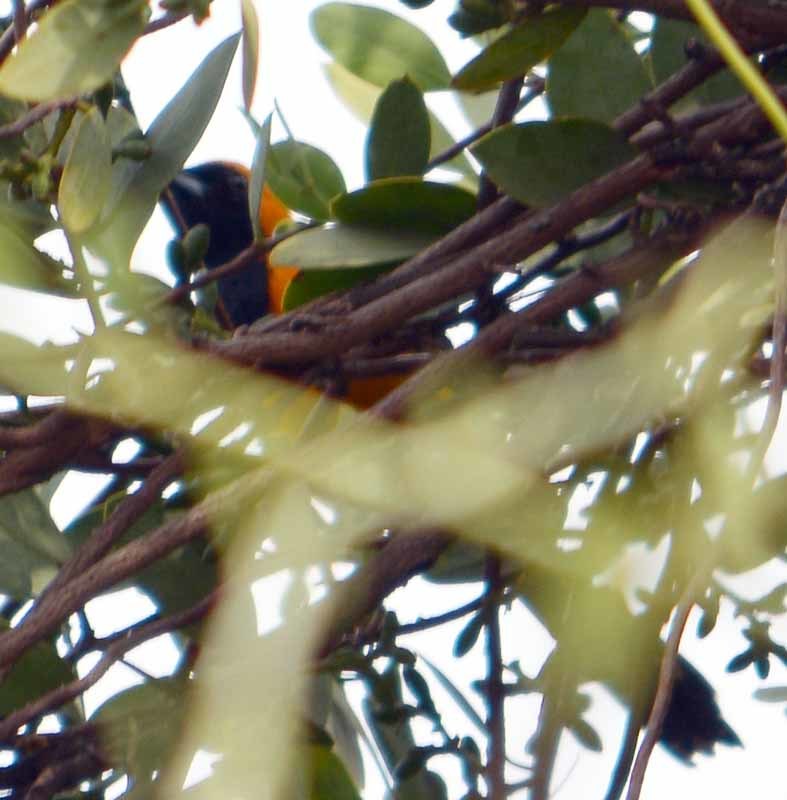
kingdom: Animalia
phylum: Chordata
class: Aves
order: Passeriformes
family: Icteridae
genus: Icterus
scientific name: Icterus cucullatus
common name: Hooded oriole
